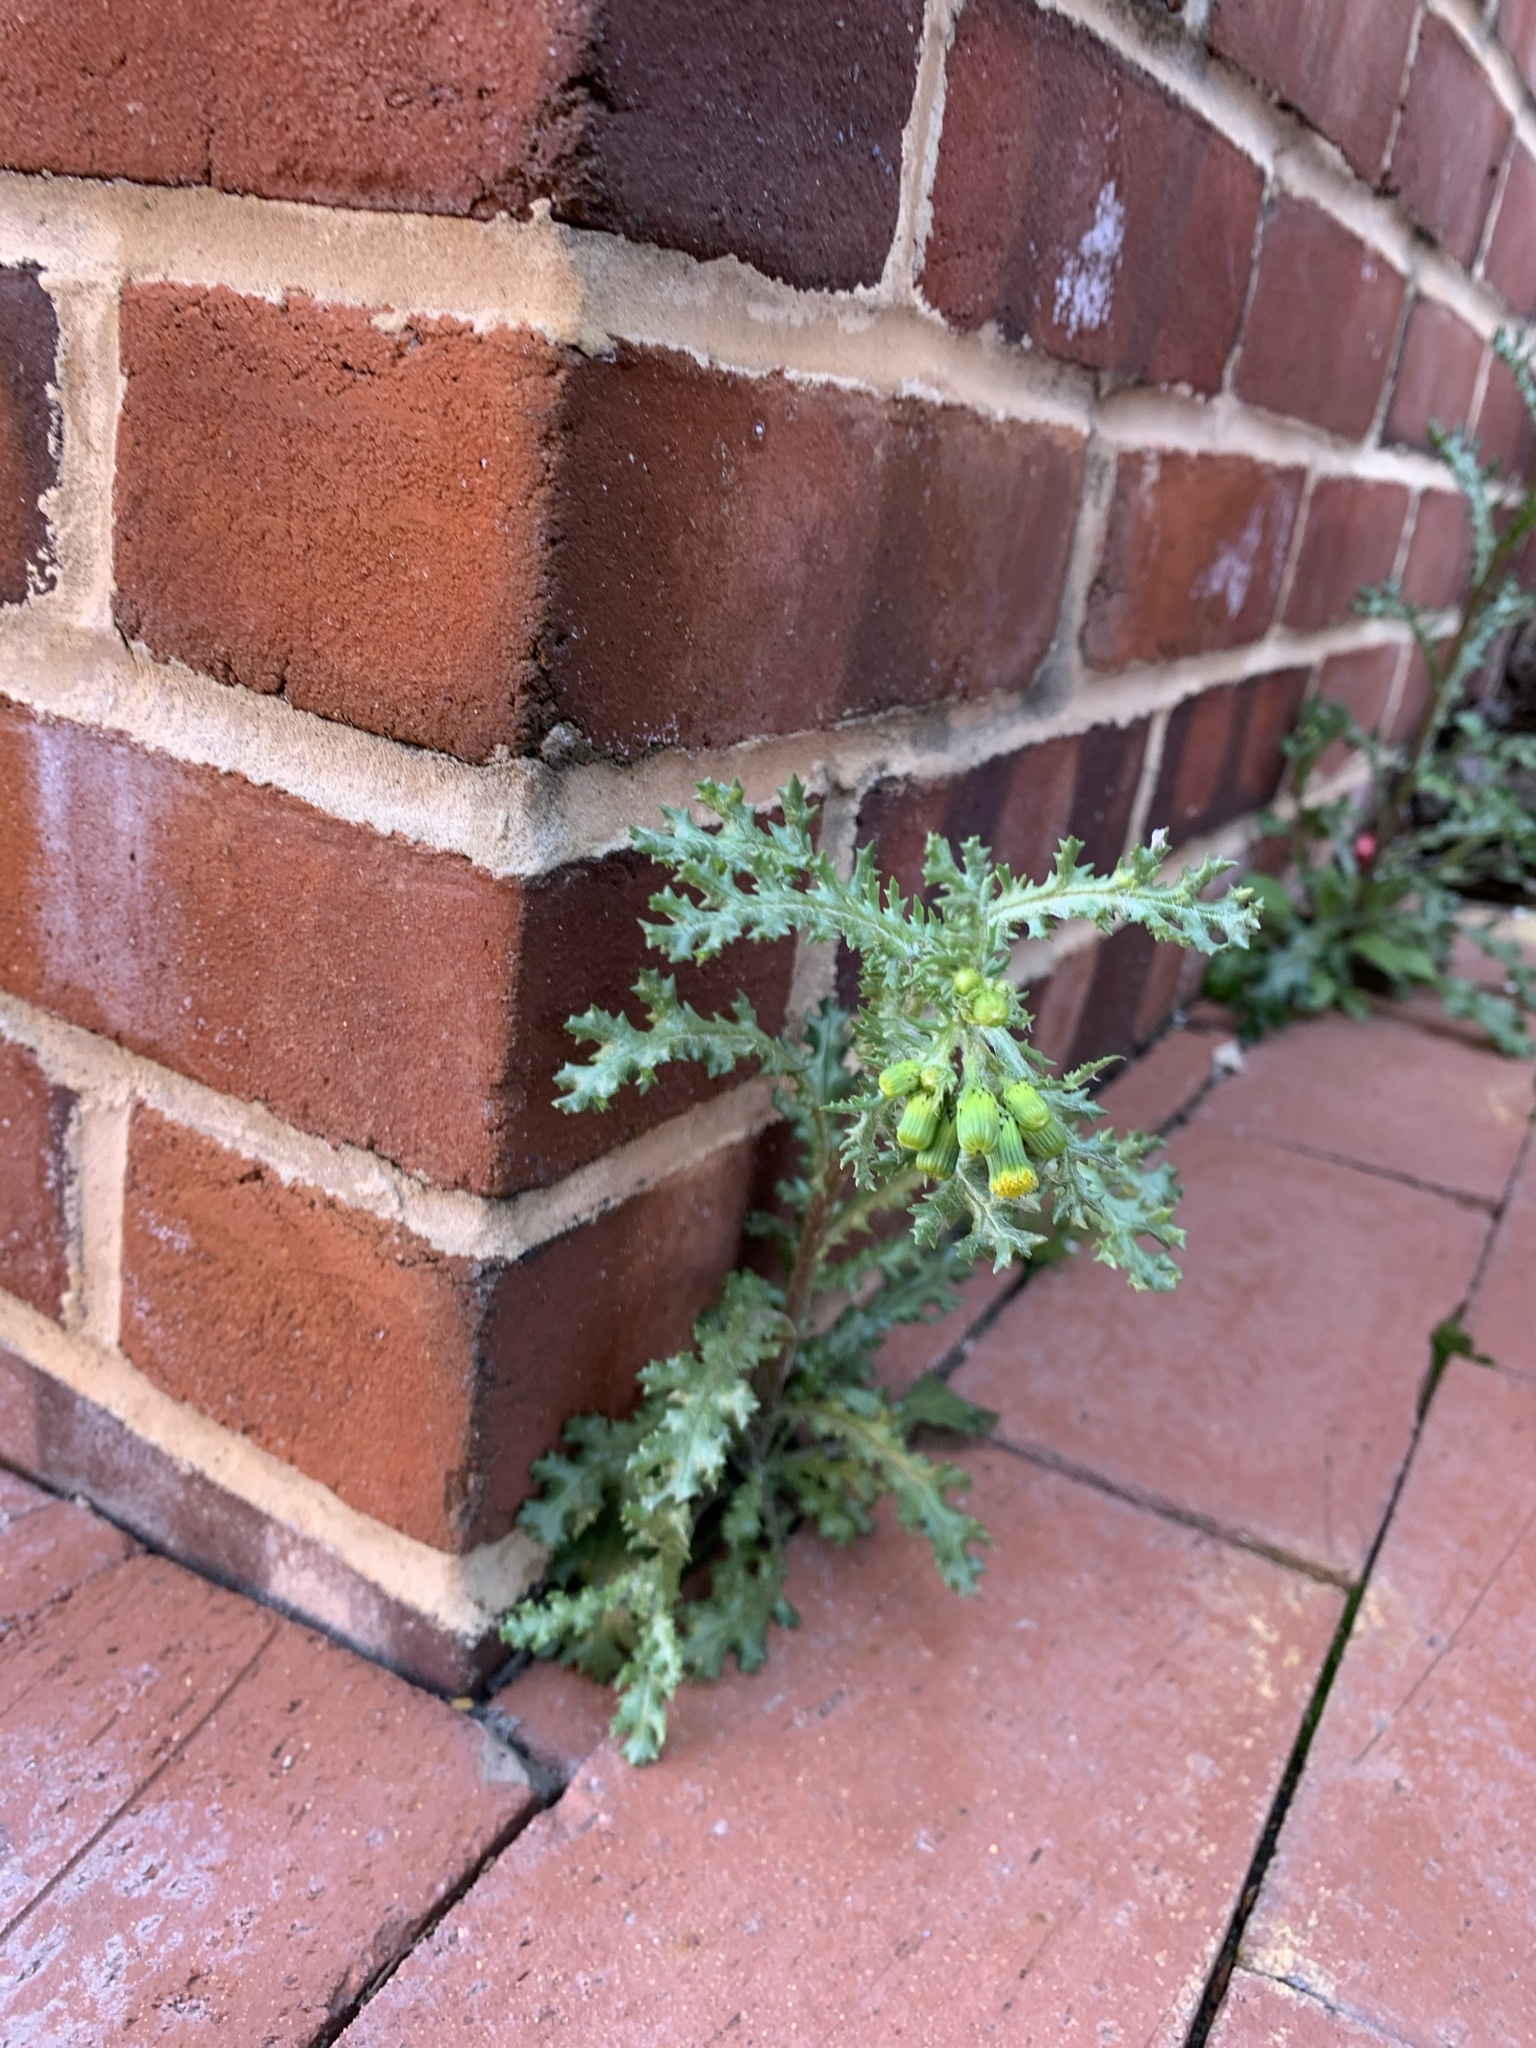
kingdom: Plantae
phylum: Tracheophyta
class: Magnoliopsida
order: Asterales
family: Asteraceae
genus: Senecio
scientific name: Senecio vulgaris
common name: Old-man-in-the-spring
